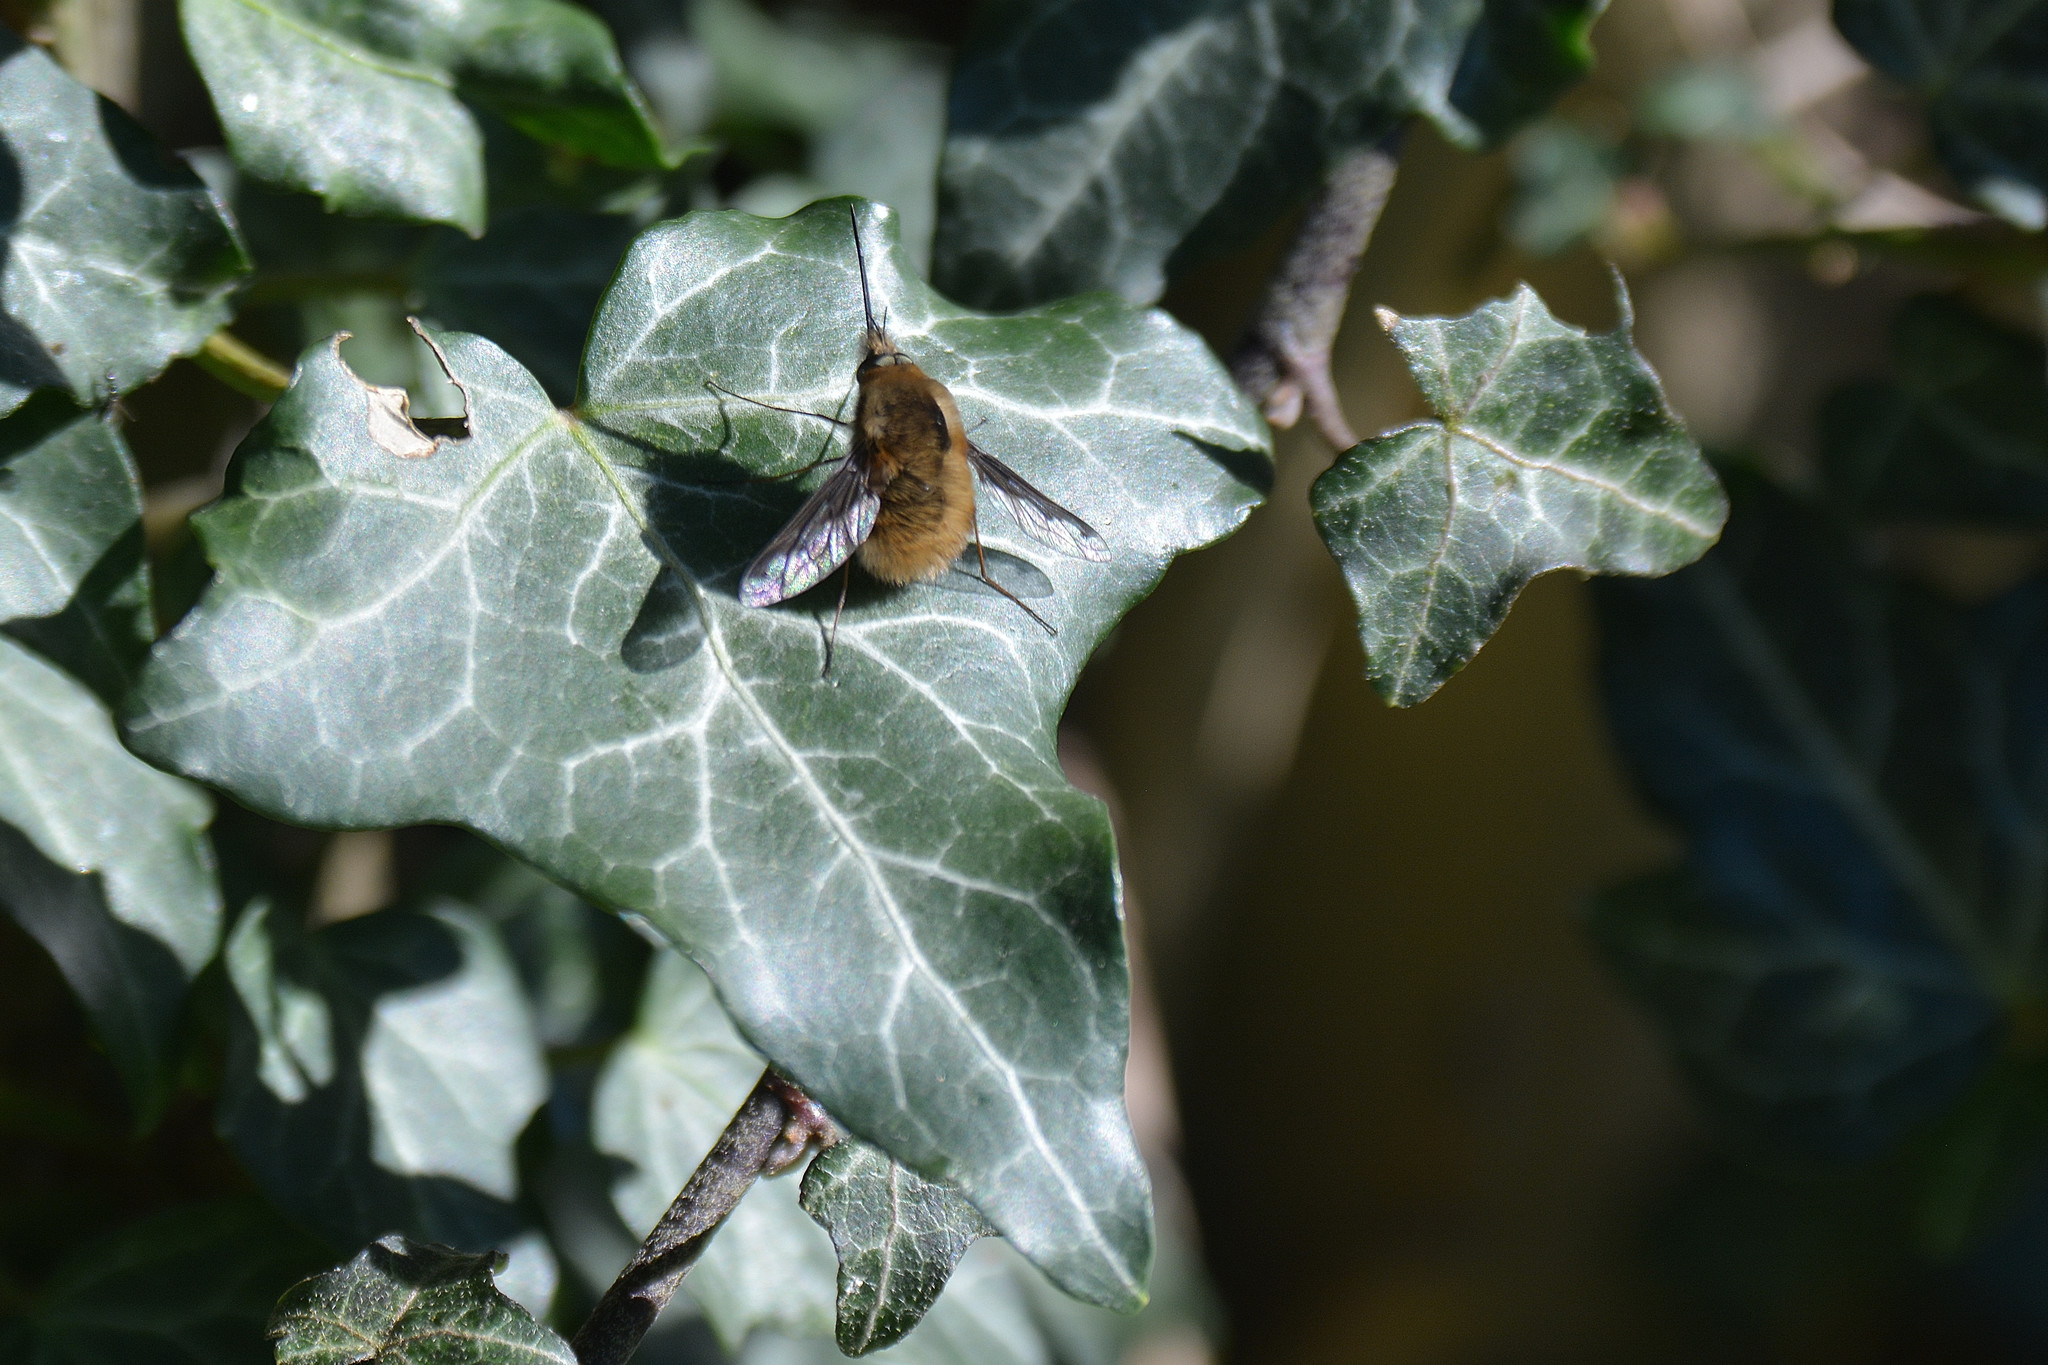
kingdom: Animalia
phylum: Arthropoda
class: Insecta
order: Diptera
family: Bombyliidae
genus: Bombylius
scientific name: Bombylius major
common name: Bee fly
